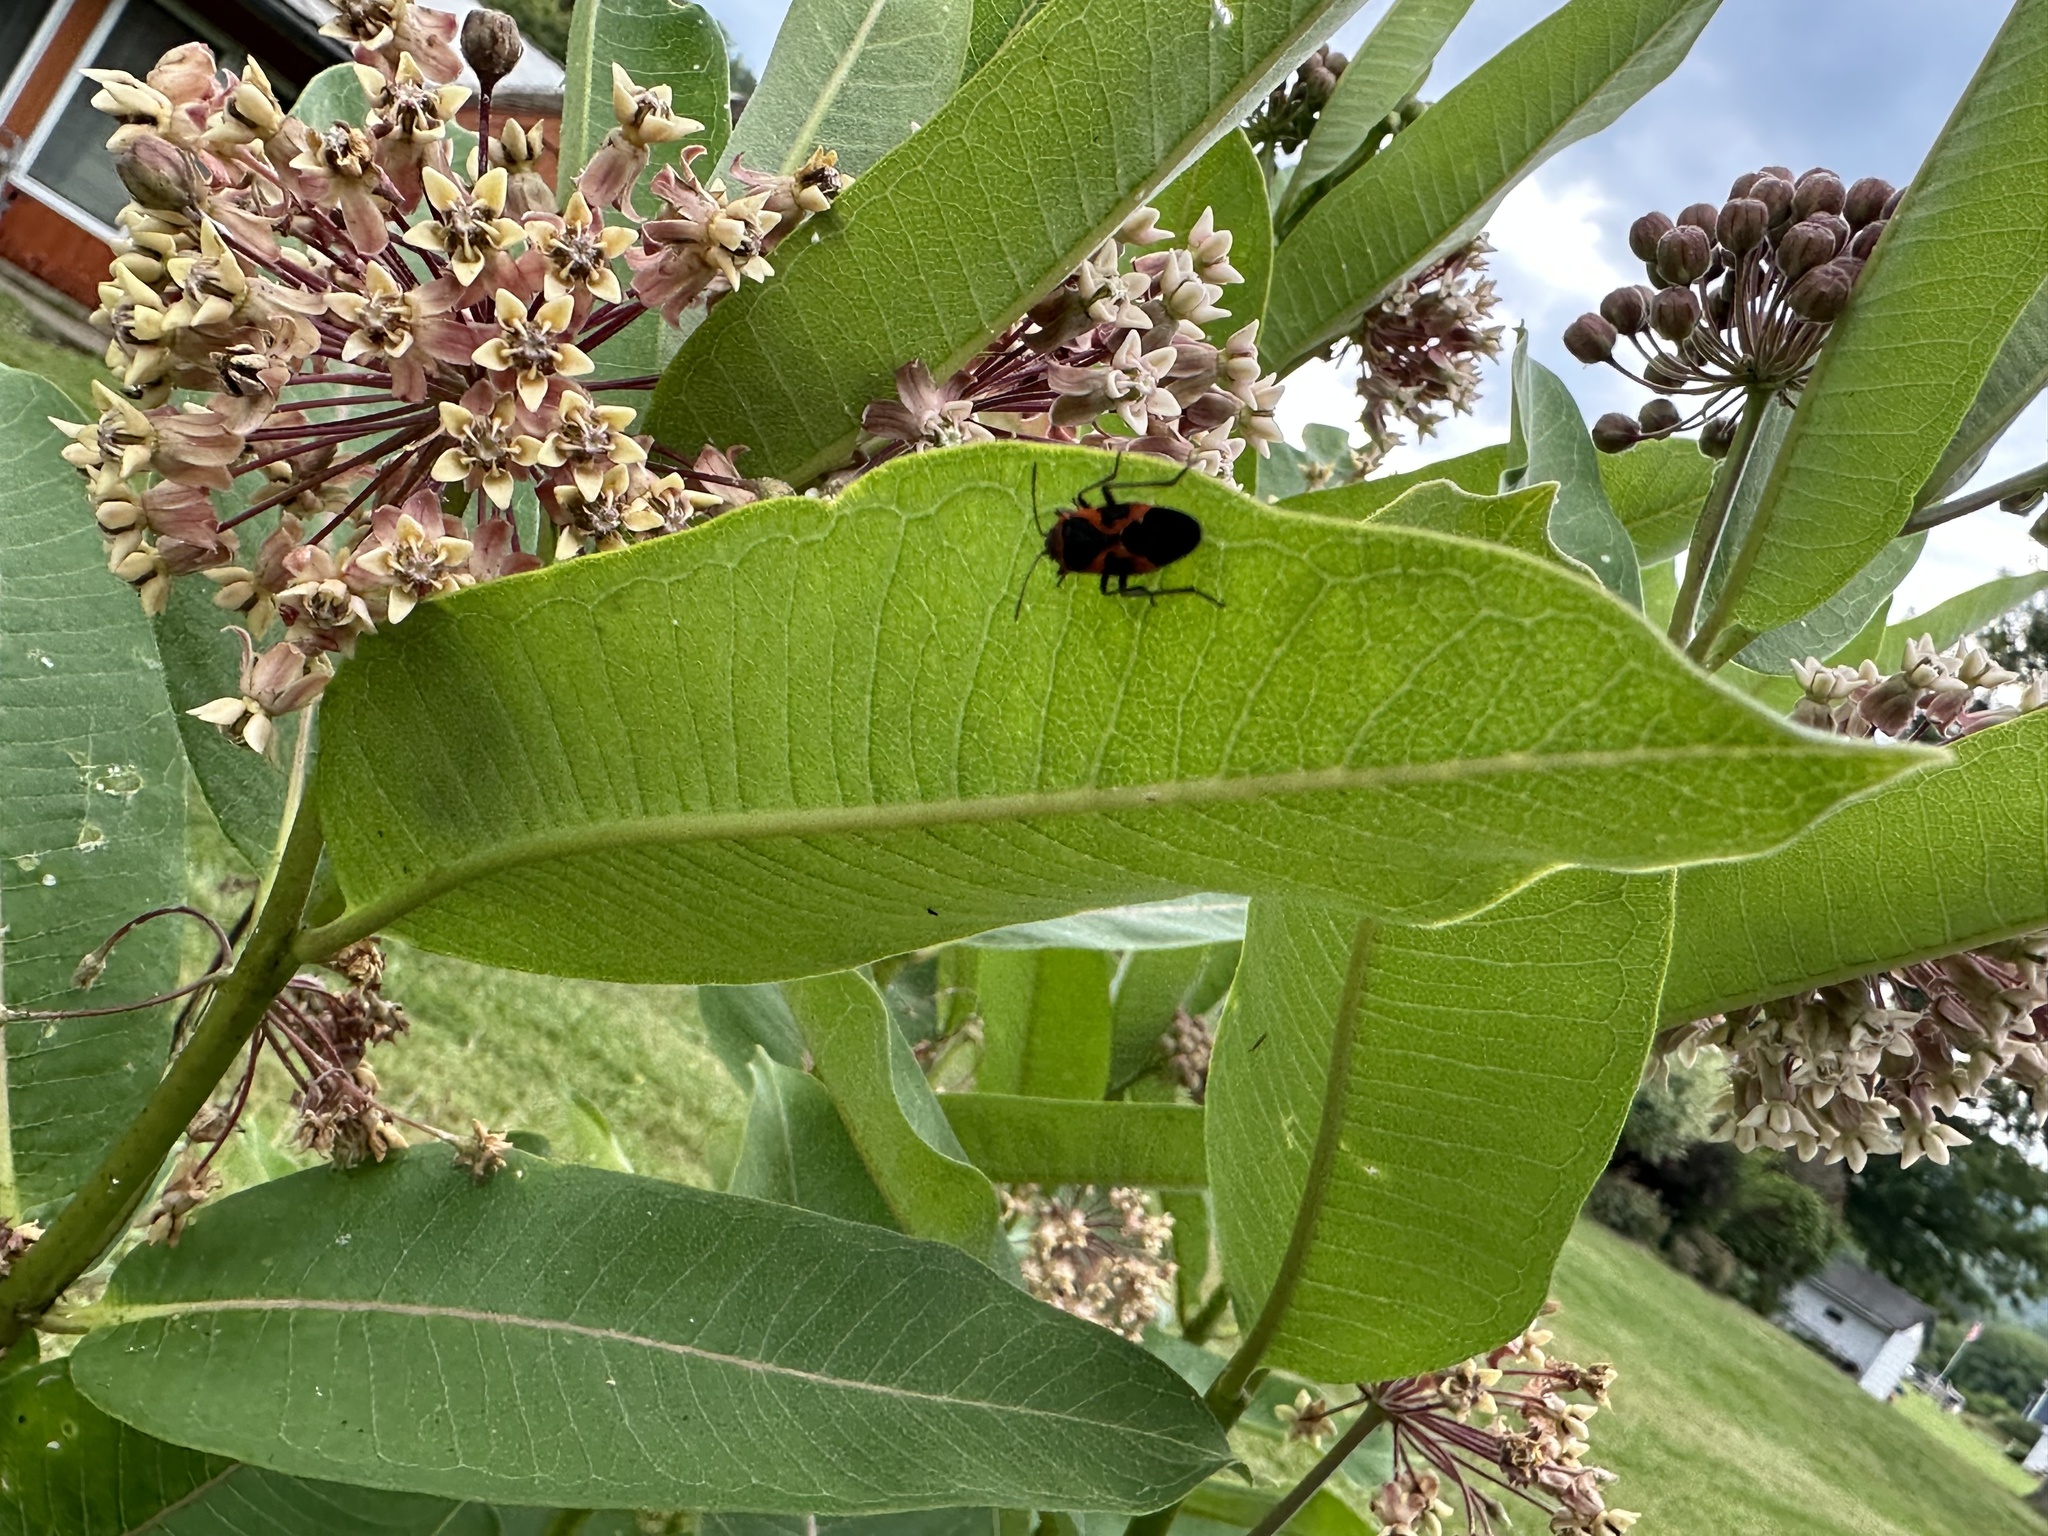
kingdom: Animalia
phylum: Arthropoda
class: Insecta
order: Hemiptera
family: Lygaeidae
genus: Lygaeus
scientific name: Lygaeus kalmii
